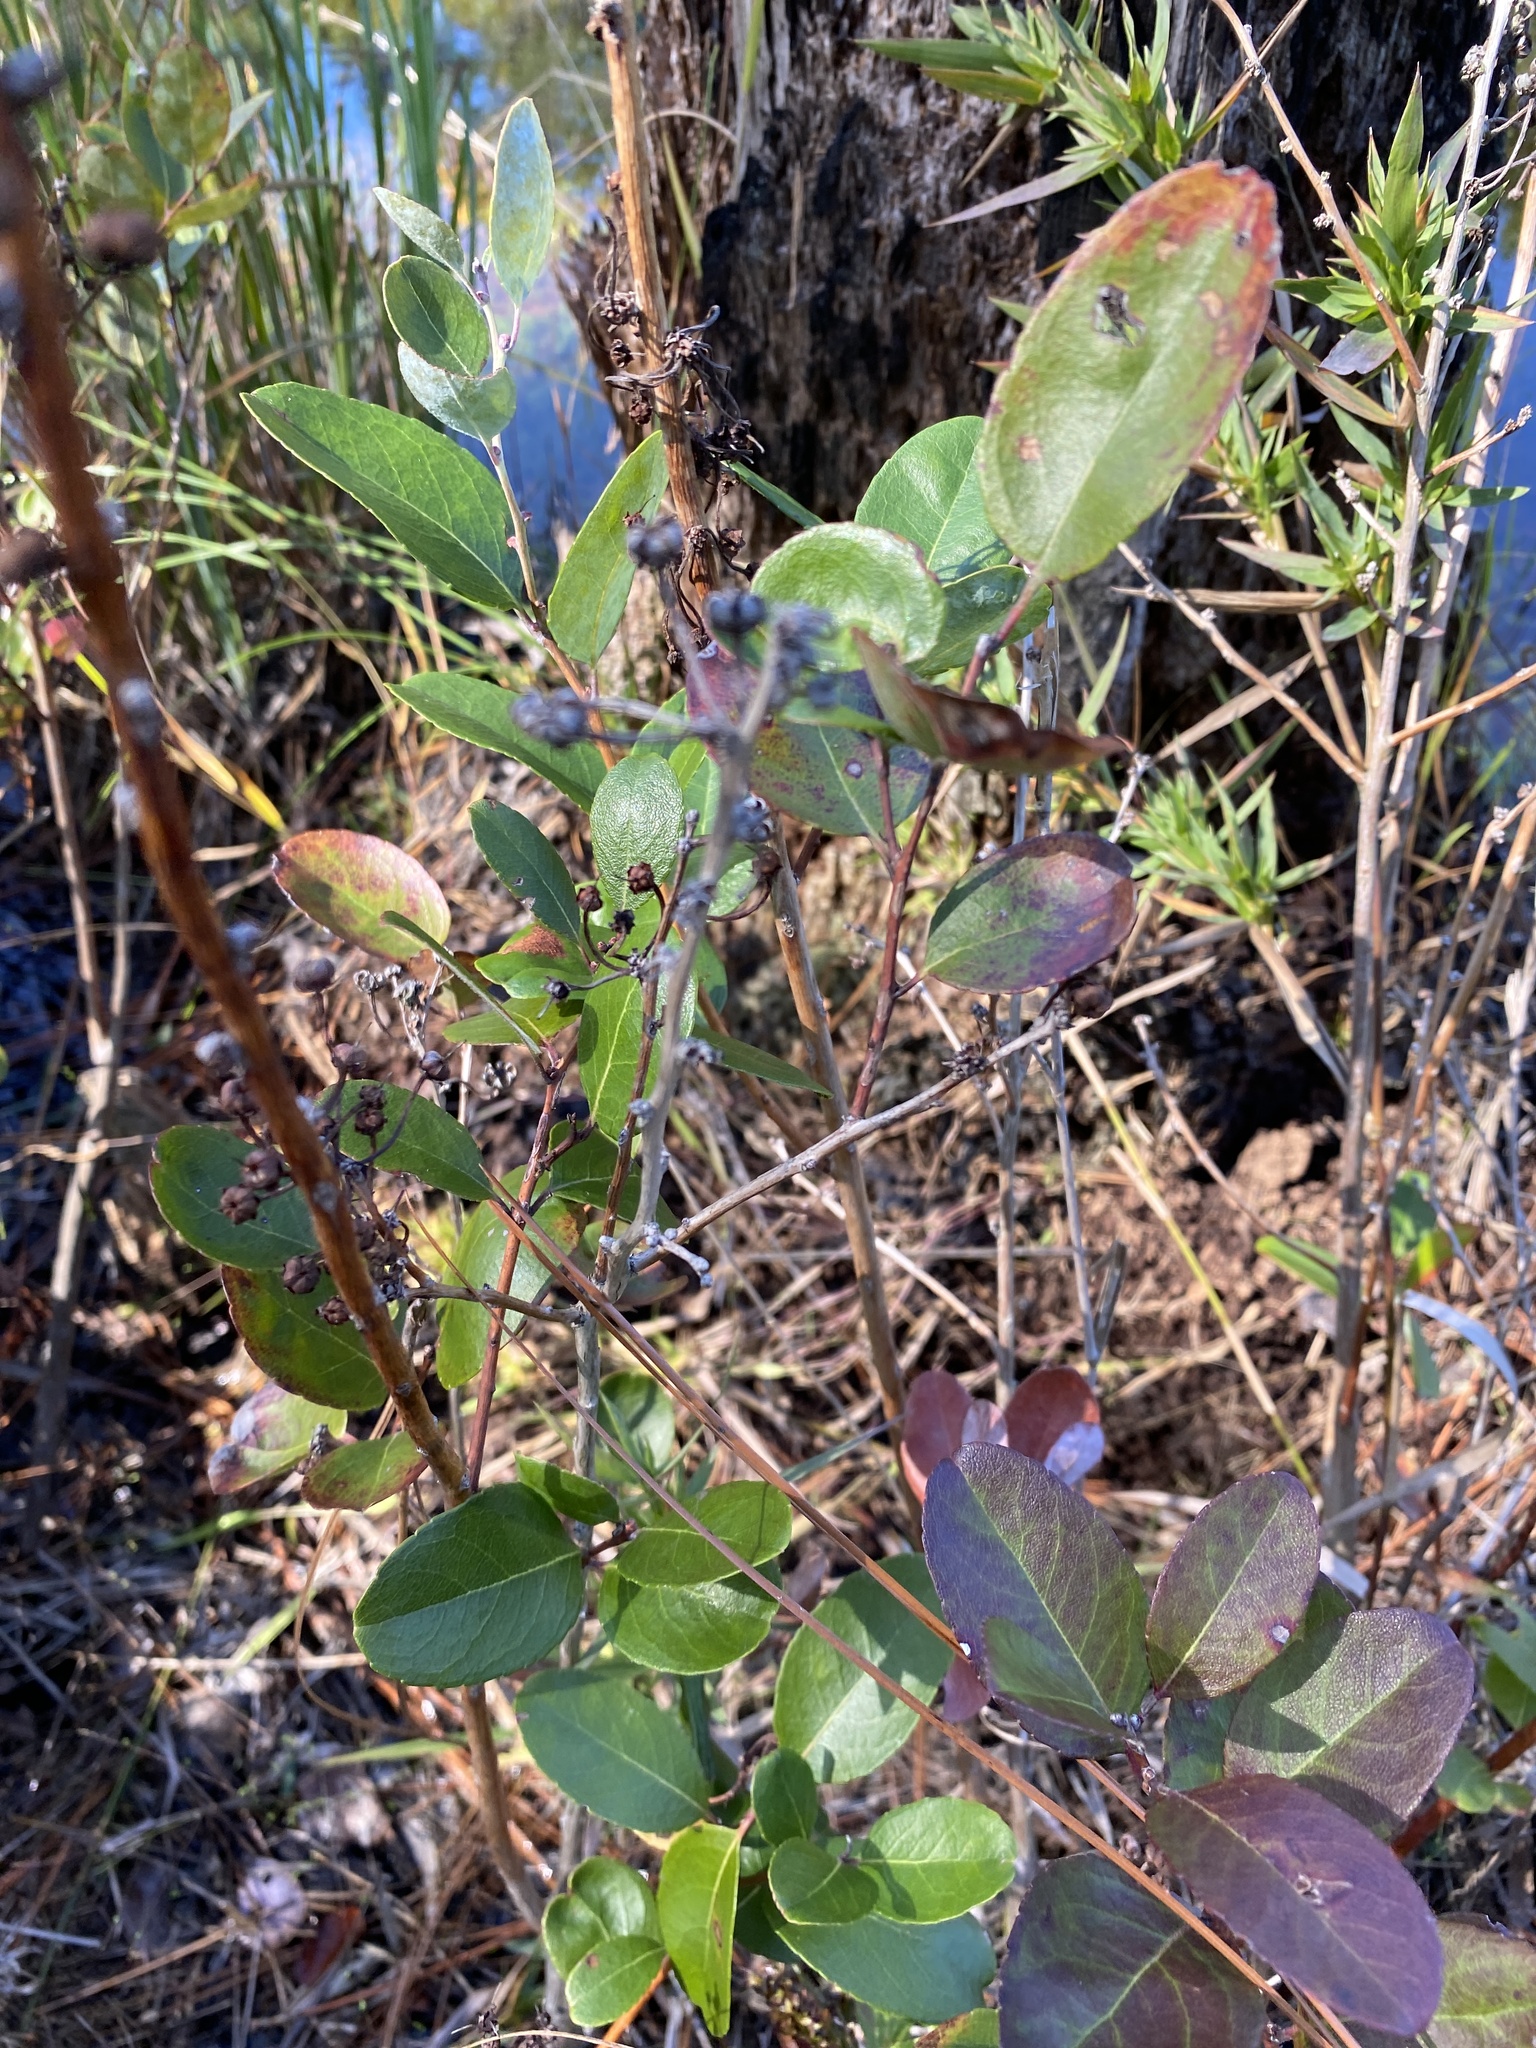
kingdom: Plantae
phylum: Tracheophyta
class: Magnoliopsida
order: Ericales
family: Ericaceae
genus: Zenobia
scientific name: Zenobia pulverulenta
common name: Zenobia
